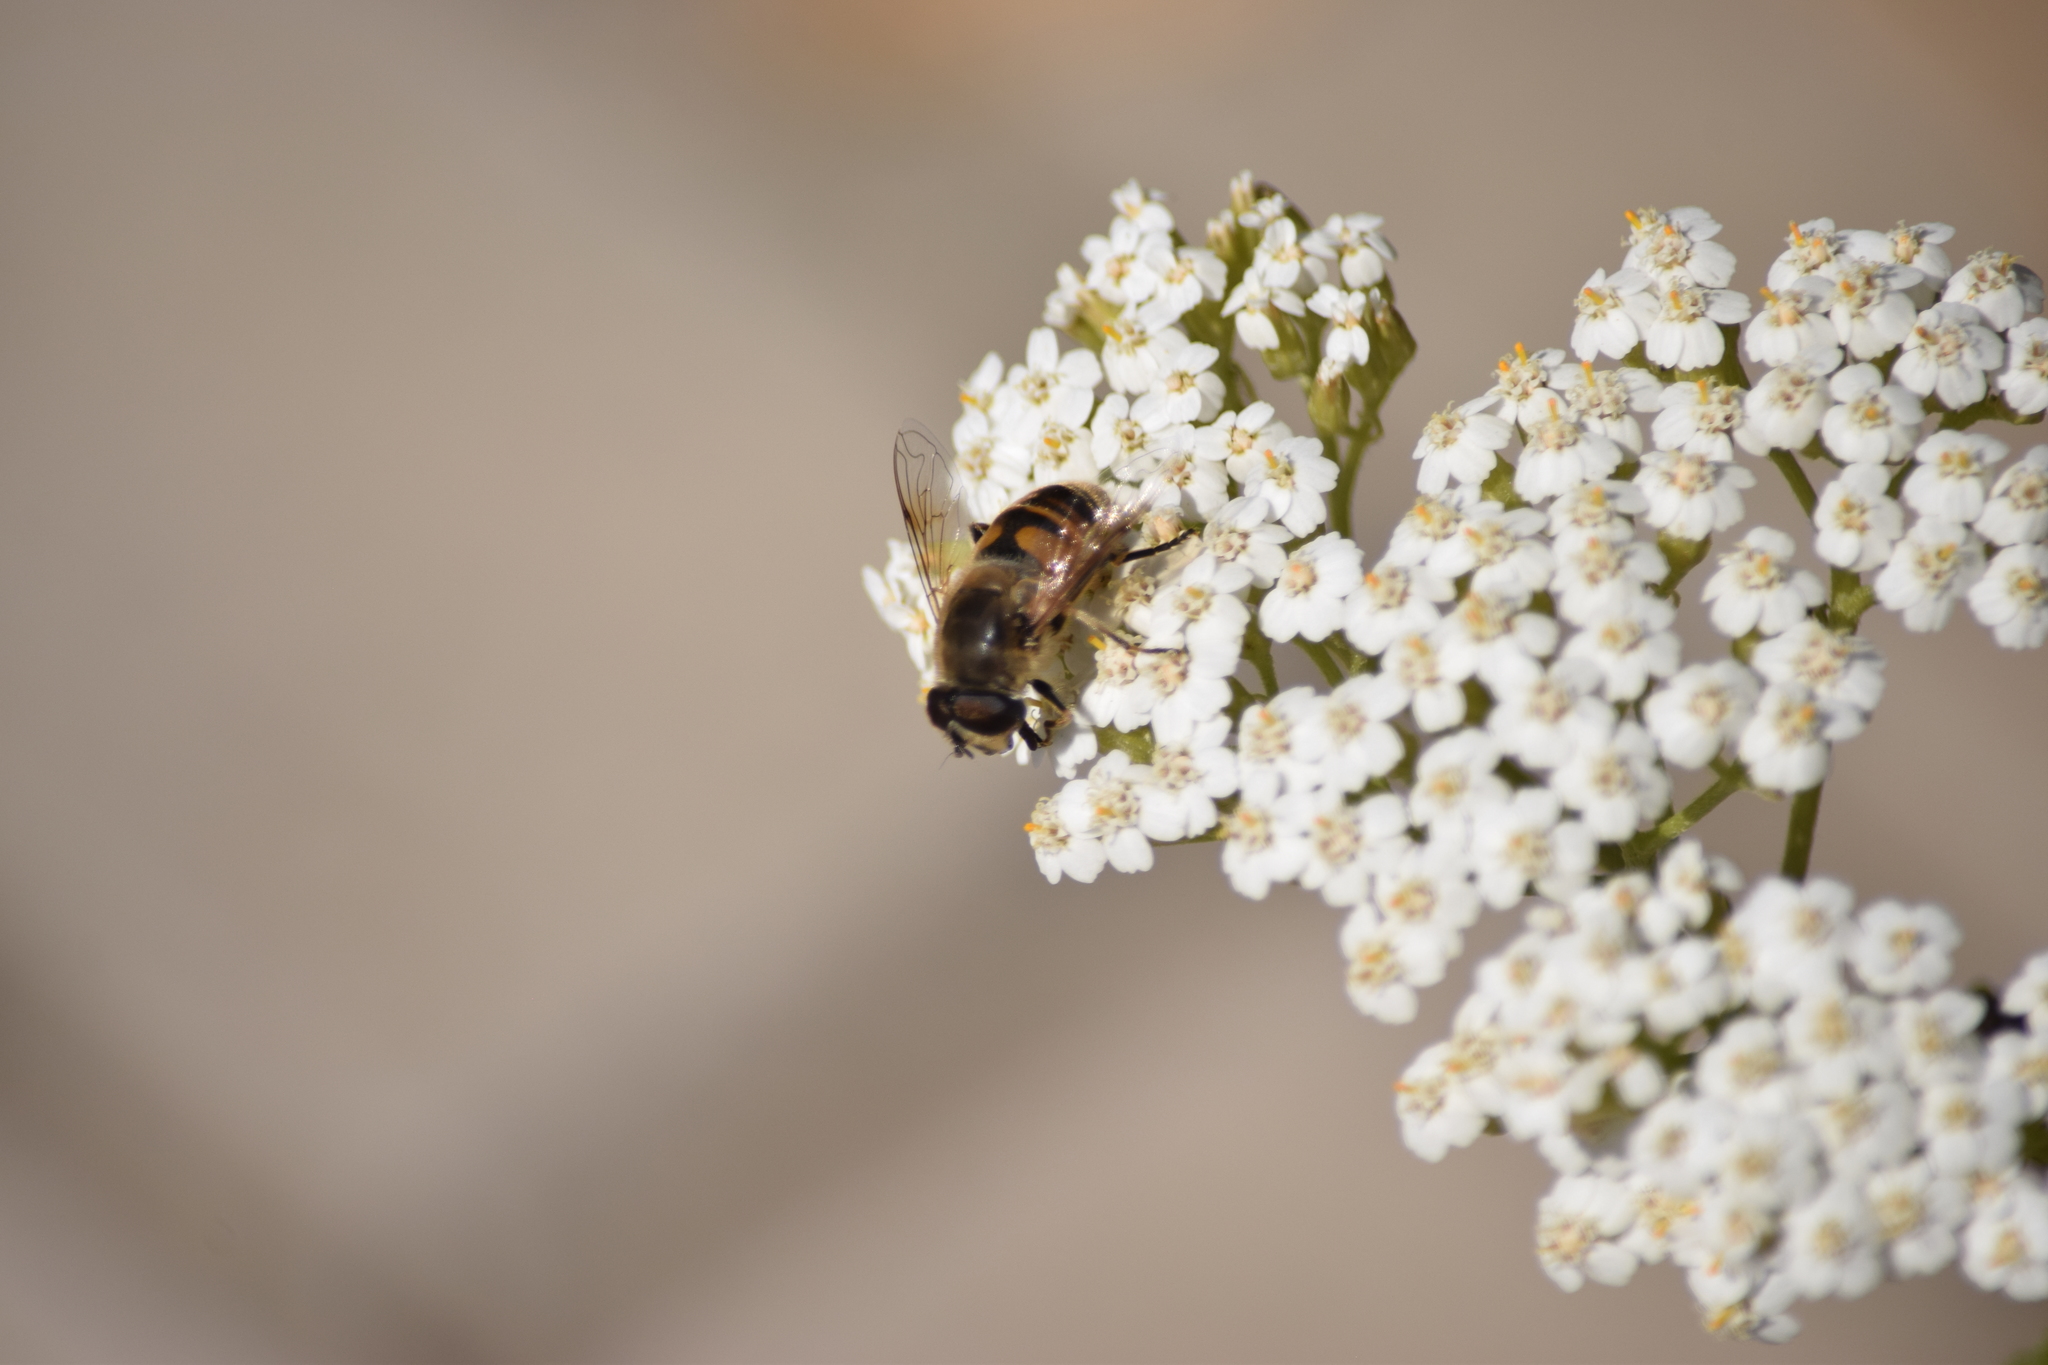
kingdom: Plantae
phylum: Tracheophyta
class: Magnoliopsida
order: Asterales
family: Asteraceae
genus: Achillea
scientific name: Achillea millefolium
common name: Yarrow
